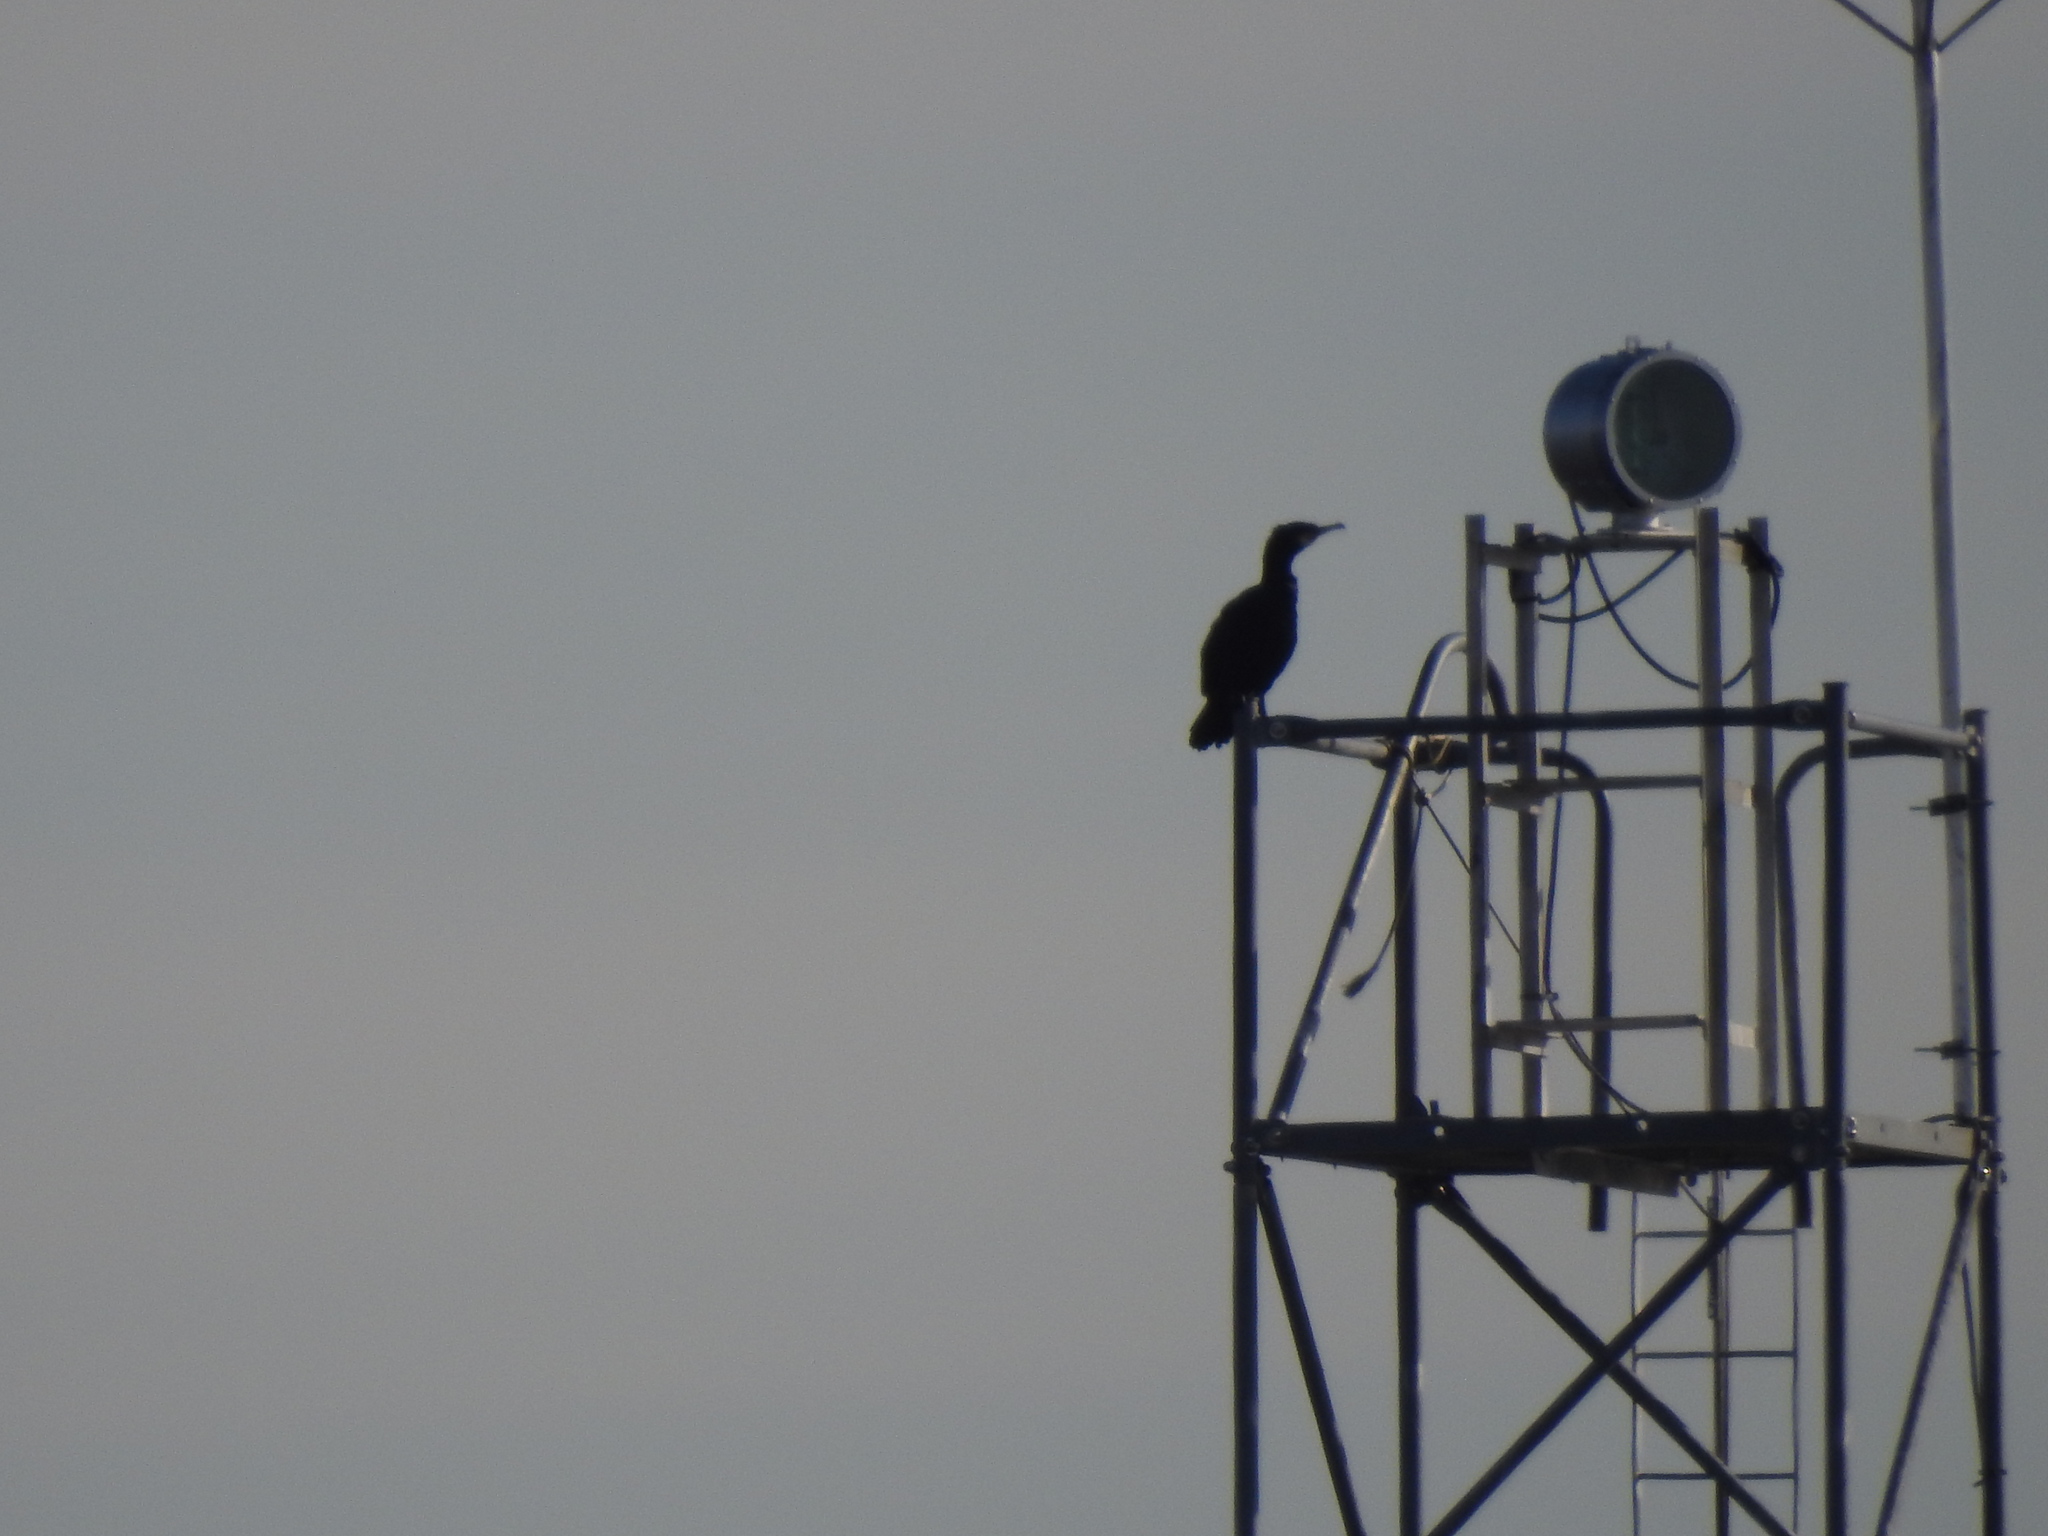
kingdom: Animalia
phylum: Chordata
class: Aves
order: Suliformes
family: Phalacrocoracidae
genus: Phalacrocorax
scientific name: Phalacrocorax carbo
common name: Great cormorant
